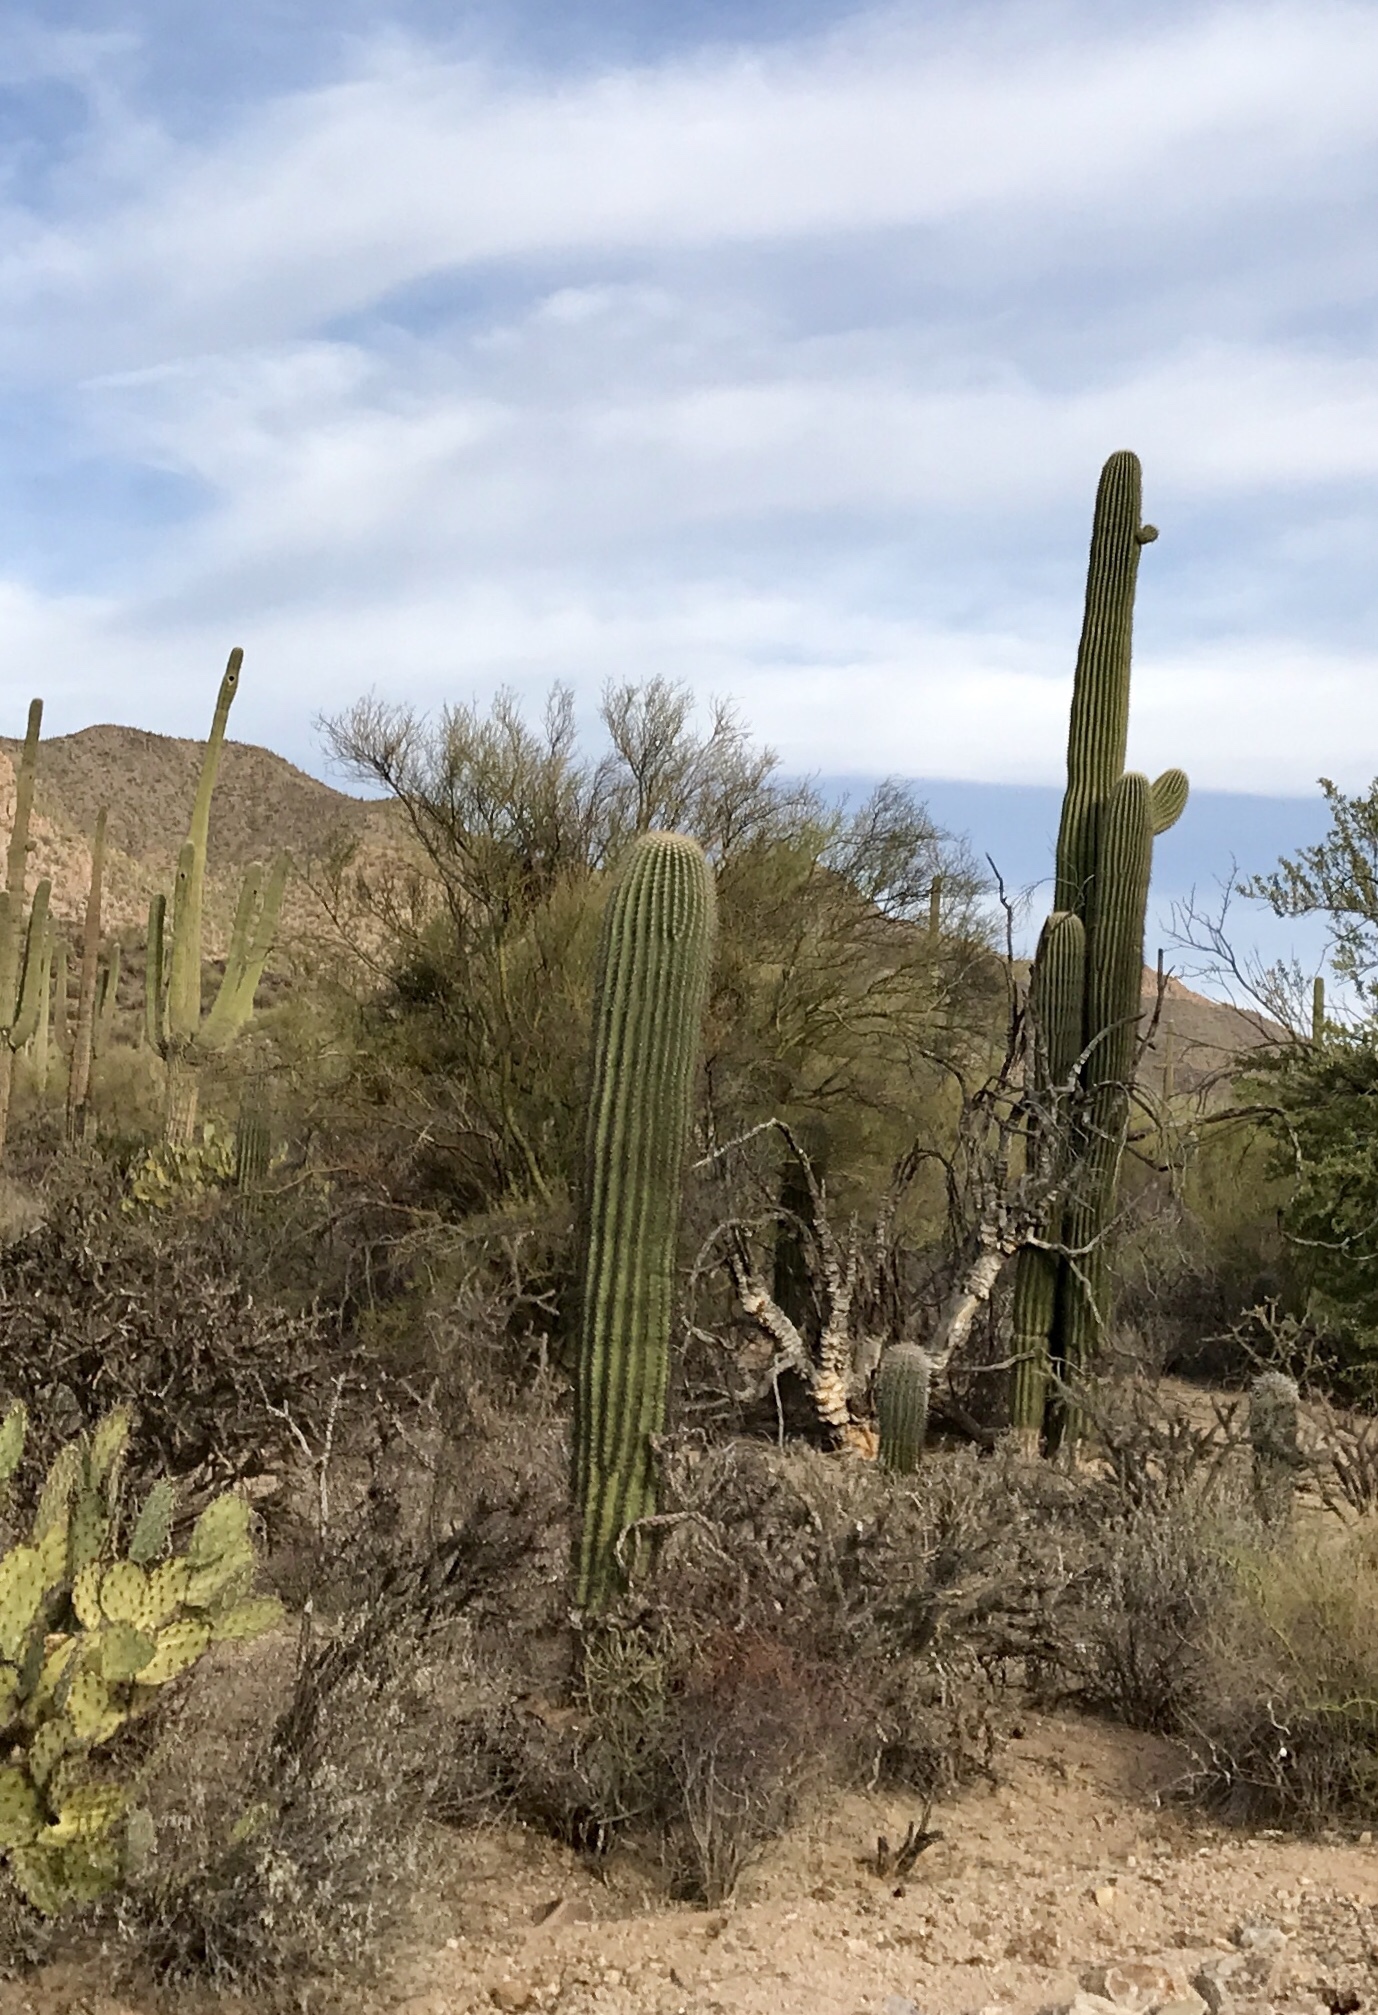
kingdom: Plantae
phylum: Tracheophyta
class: Magnoliopsida
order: Caryophyllales
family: Cactaceae
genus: Carnegiea
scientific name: Carnegiea gigantea
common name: Saguaro
